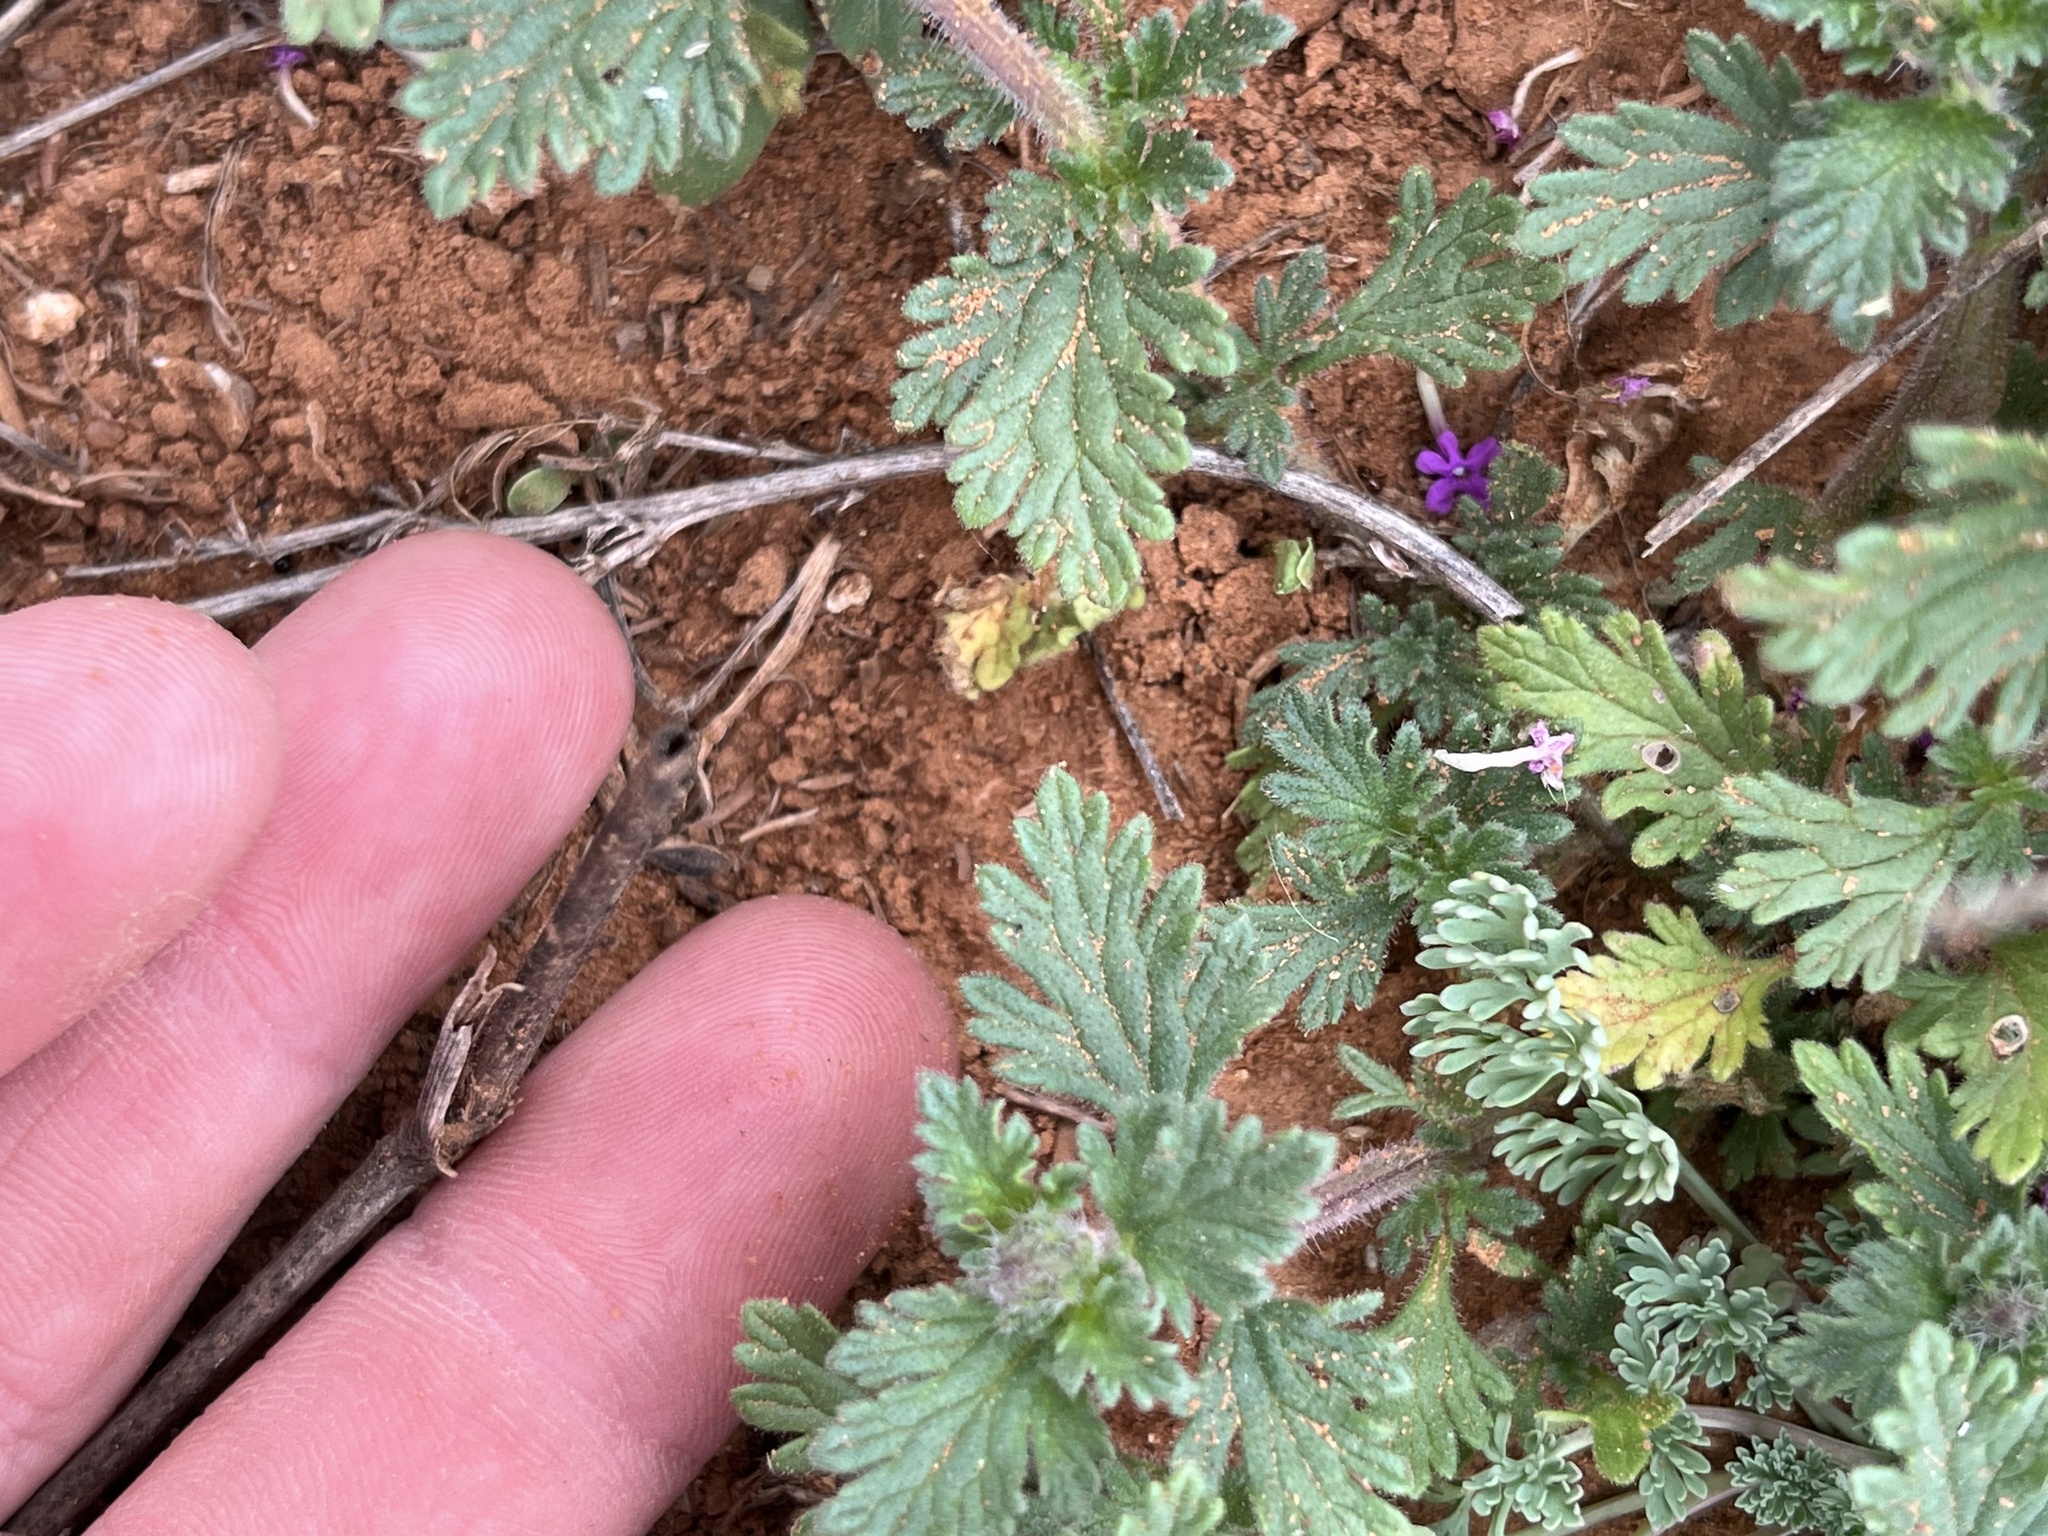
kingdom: Plantae
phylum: Tracheophyta
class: Magnoliopsida
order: Lamiales
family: Verbenaceae
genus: Verbena
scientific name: Verbena pumila
